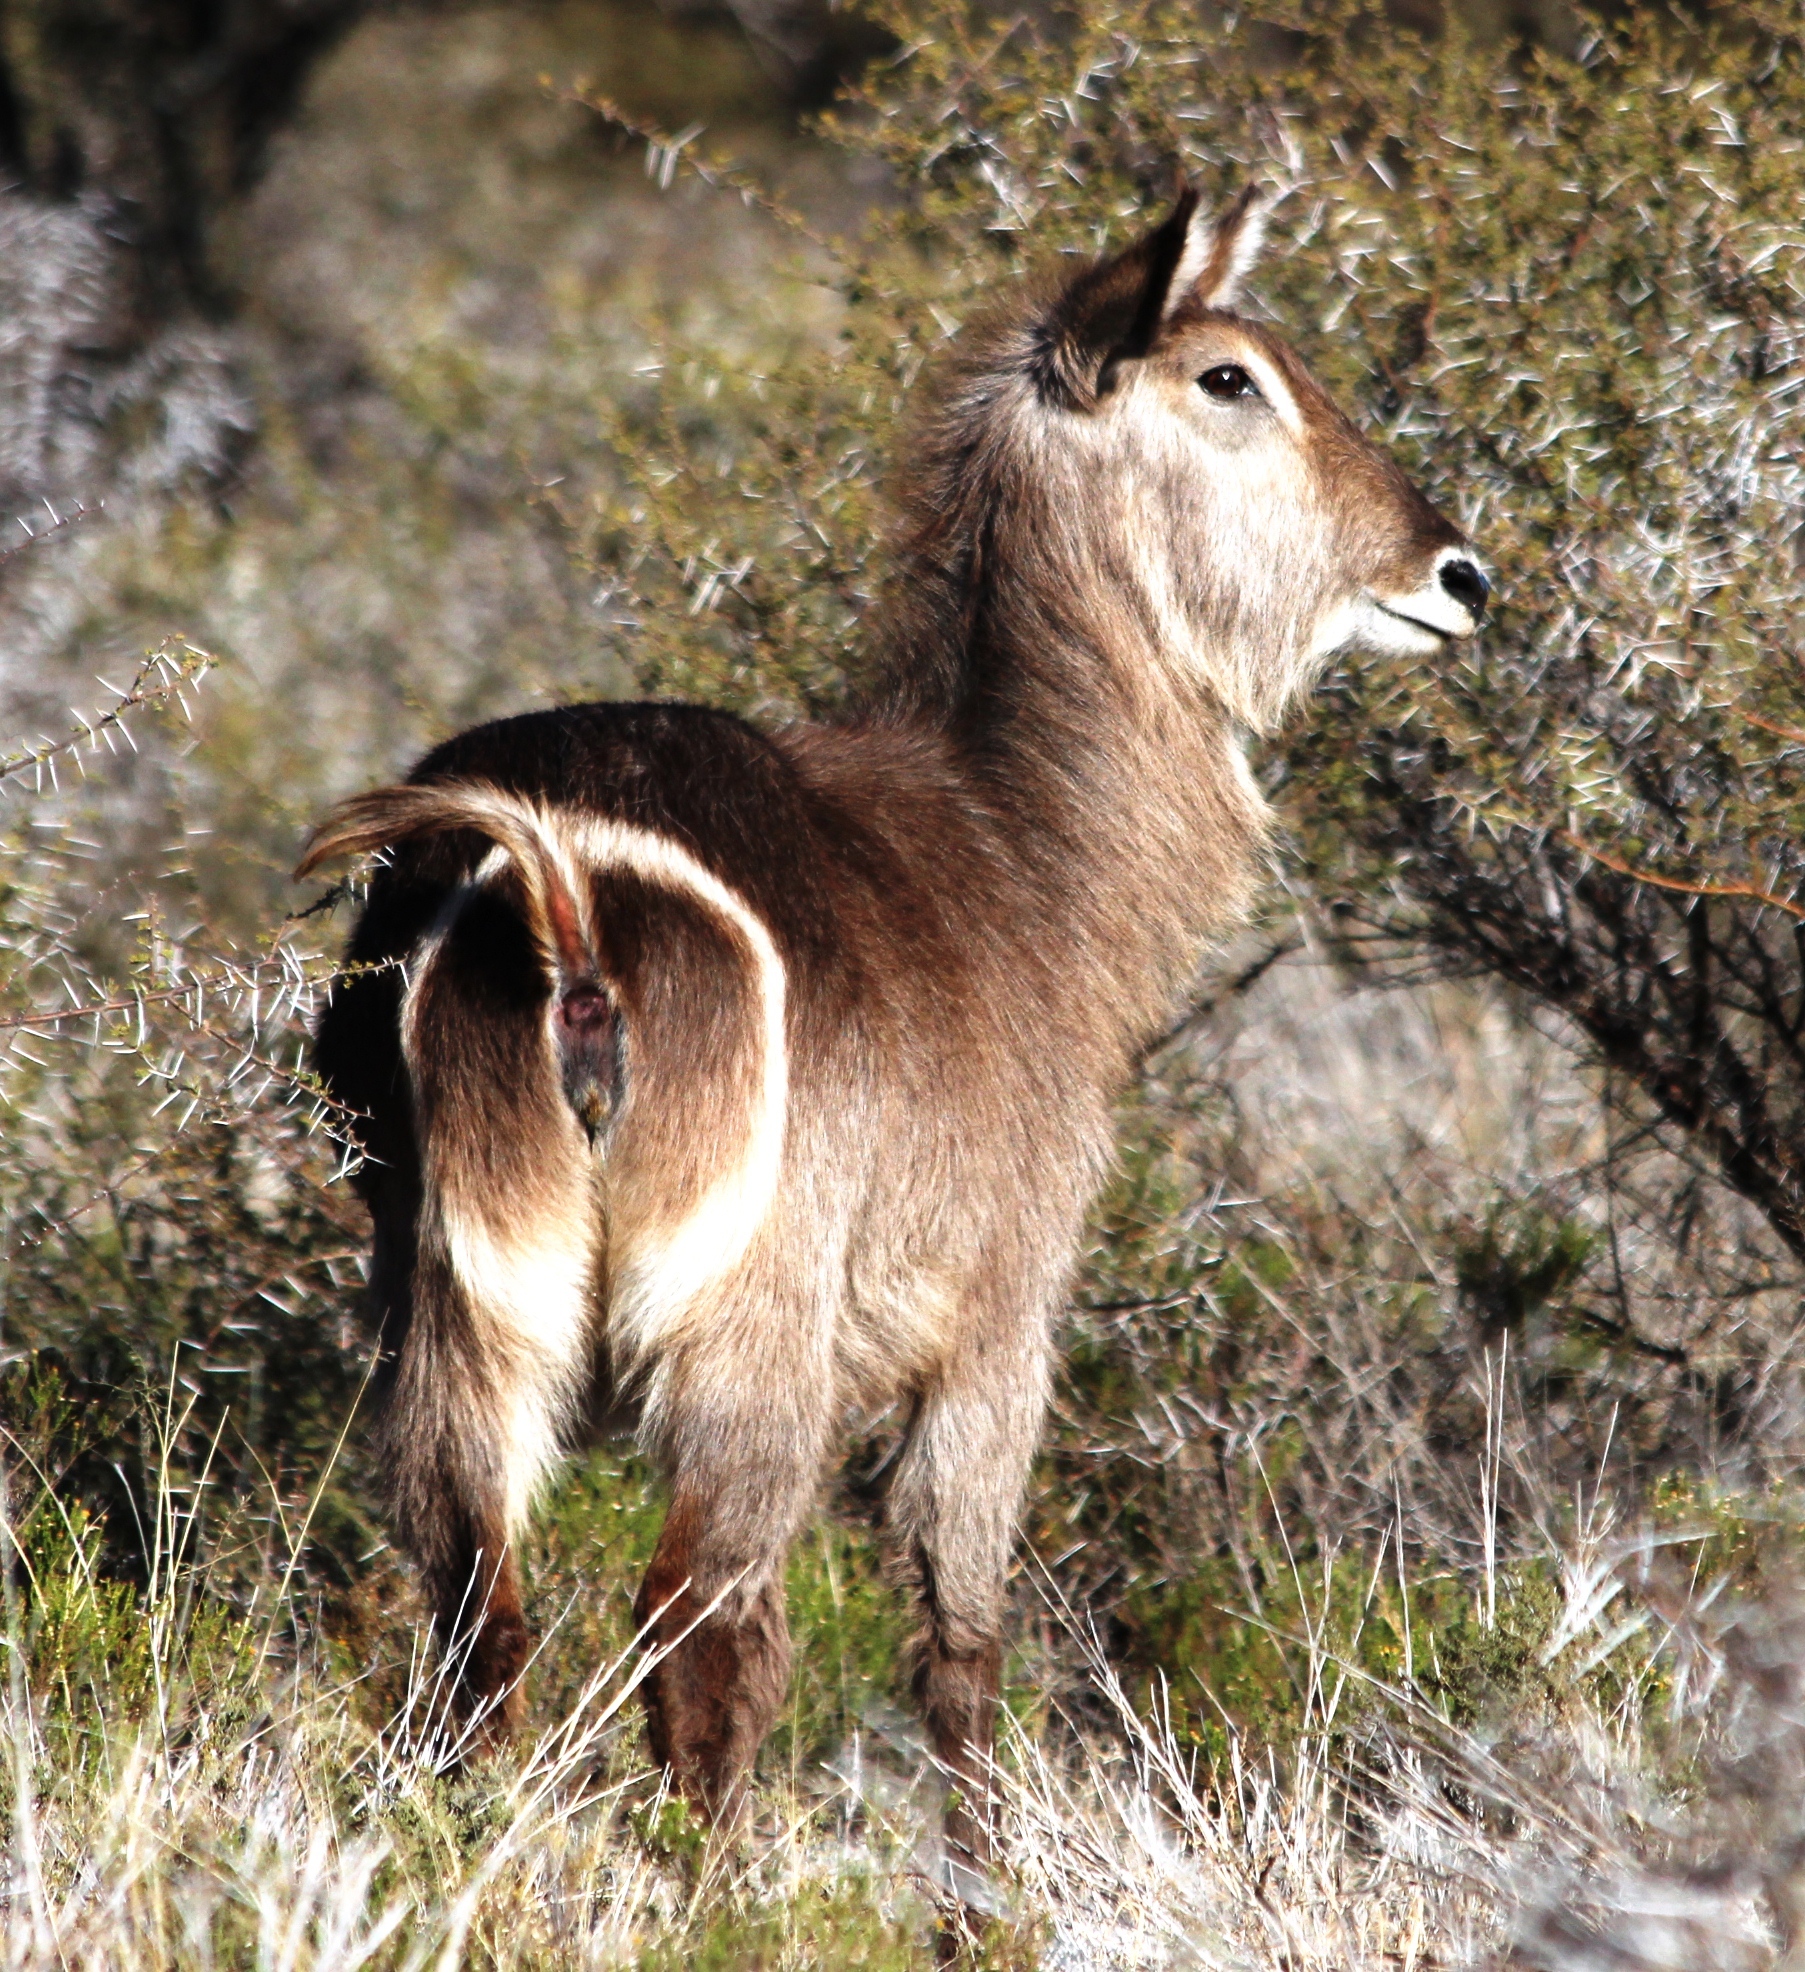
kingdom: Animalia
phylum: Chordata
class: Mammalia
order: Artiodactyla
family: Bovidae
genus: Kobus
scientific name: Kobus ellipsiprymnus
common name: Waterbuck
